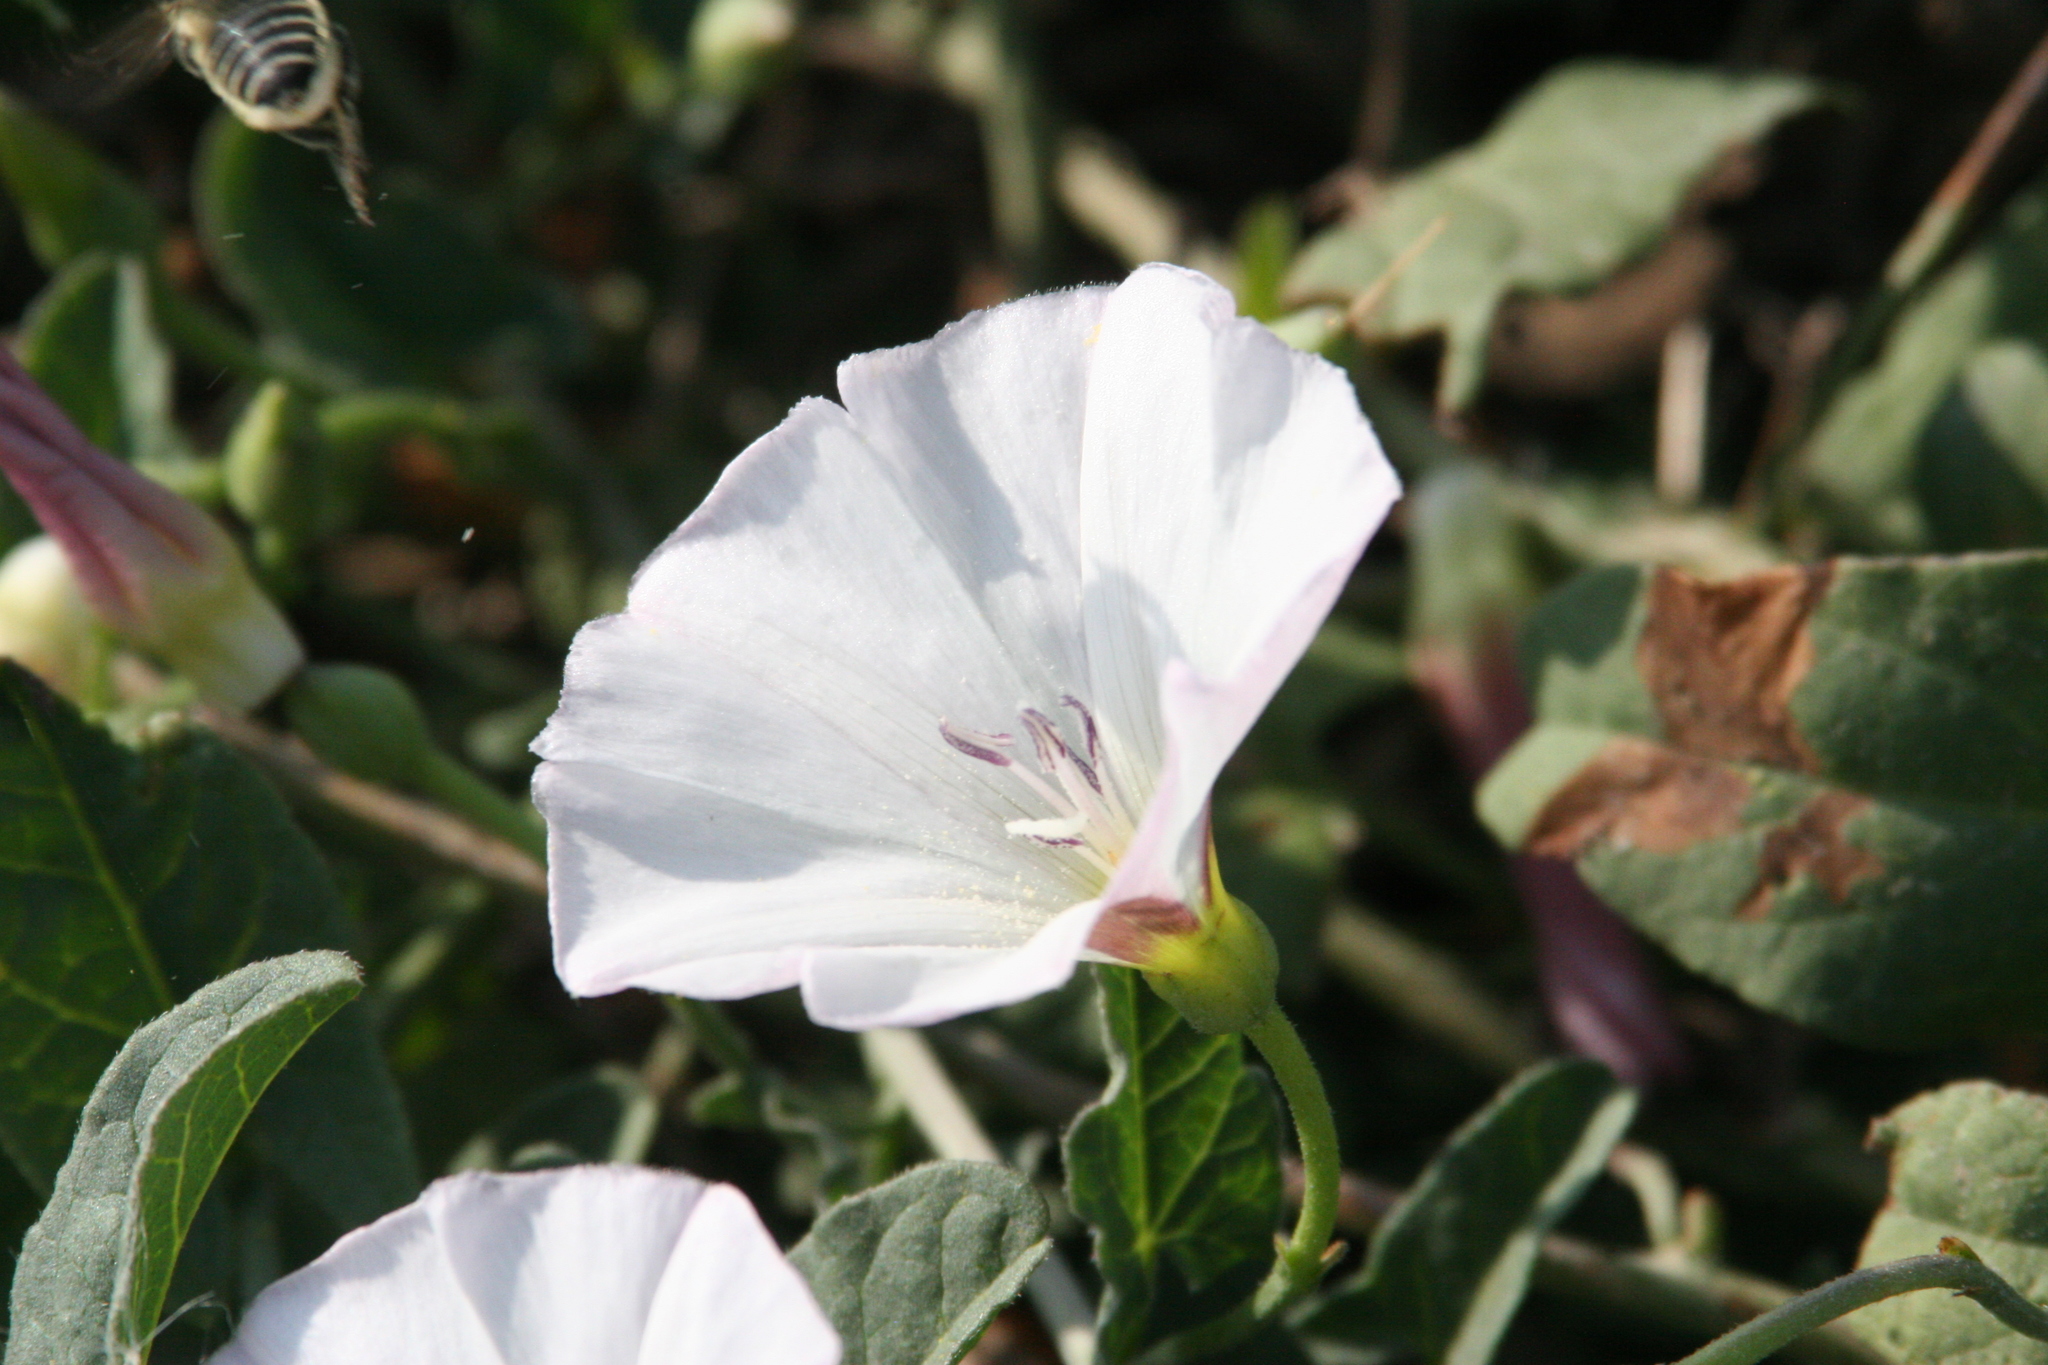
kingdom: Plantae
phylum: Tracheophyta
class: Magnoliopsida
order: Solanales
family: Convolvulaceae
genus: Convolvulus
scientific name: Convolvulus arvensis
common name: Field bindweed
